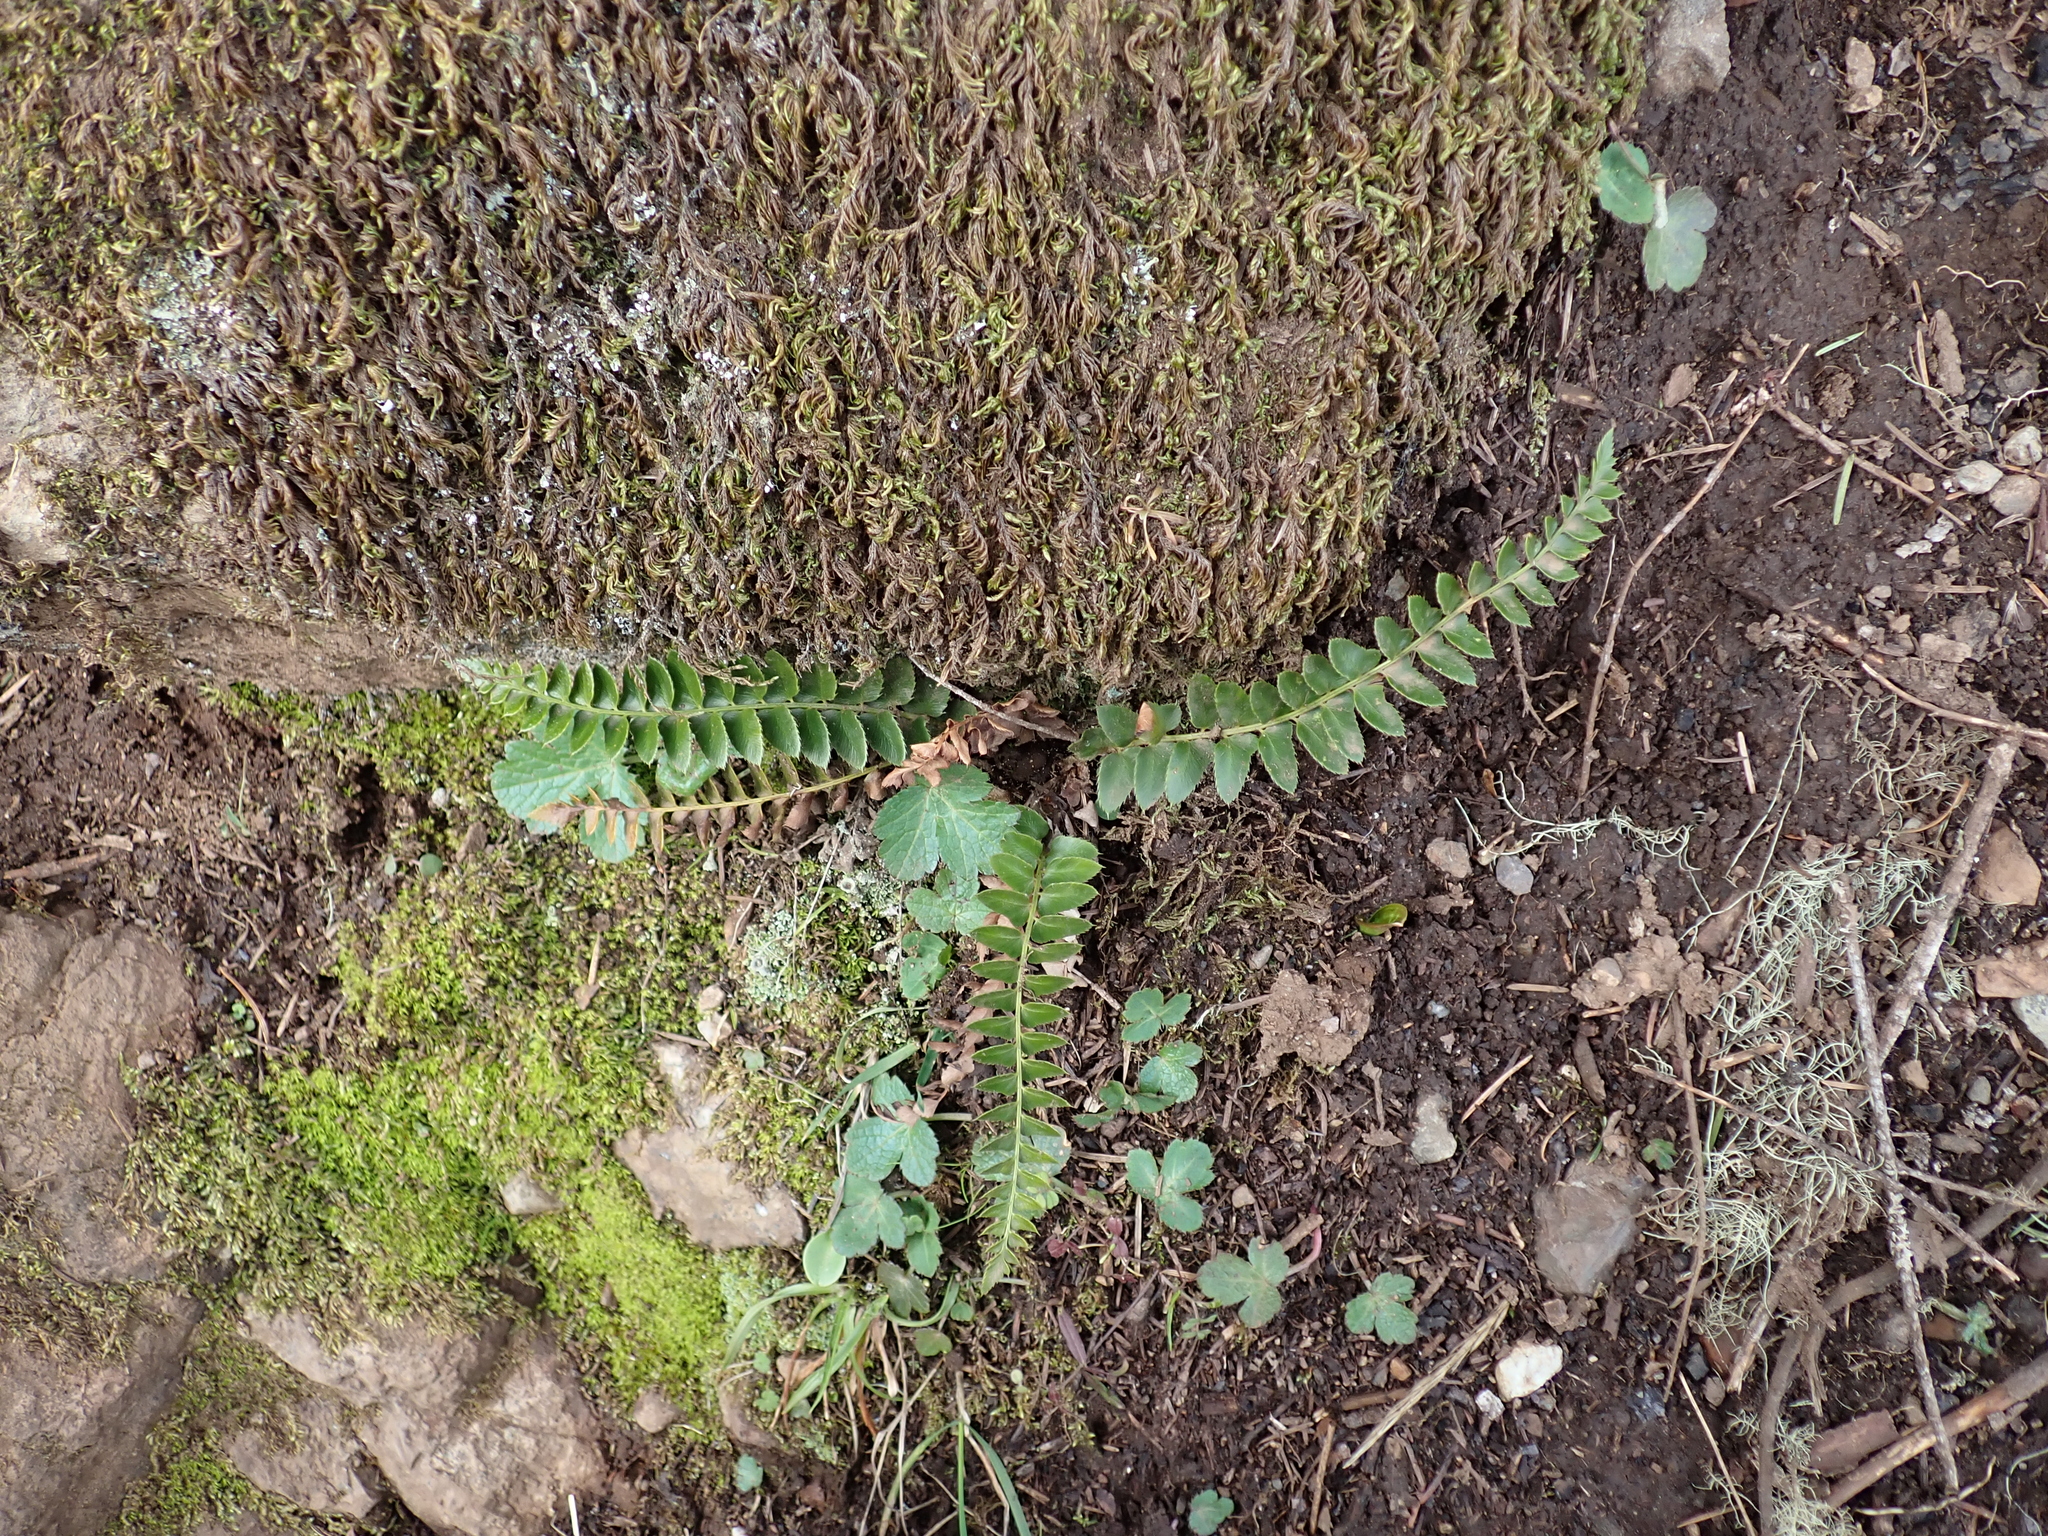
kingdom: Plantae
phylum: Tracheophyta
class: Polypodiopsida
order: Polypodiales
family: Dryopteridaceae
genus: Polystichum
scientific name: Polystichum imbricans
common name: Dwarf western sword fern
